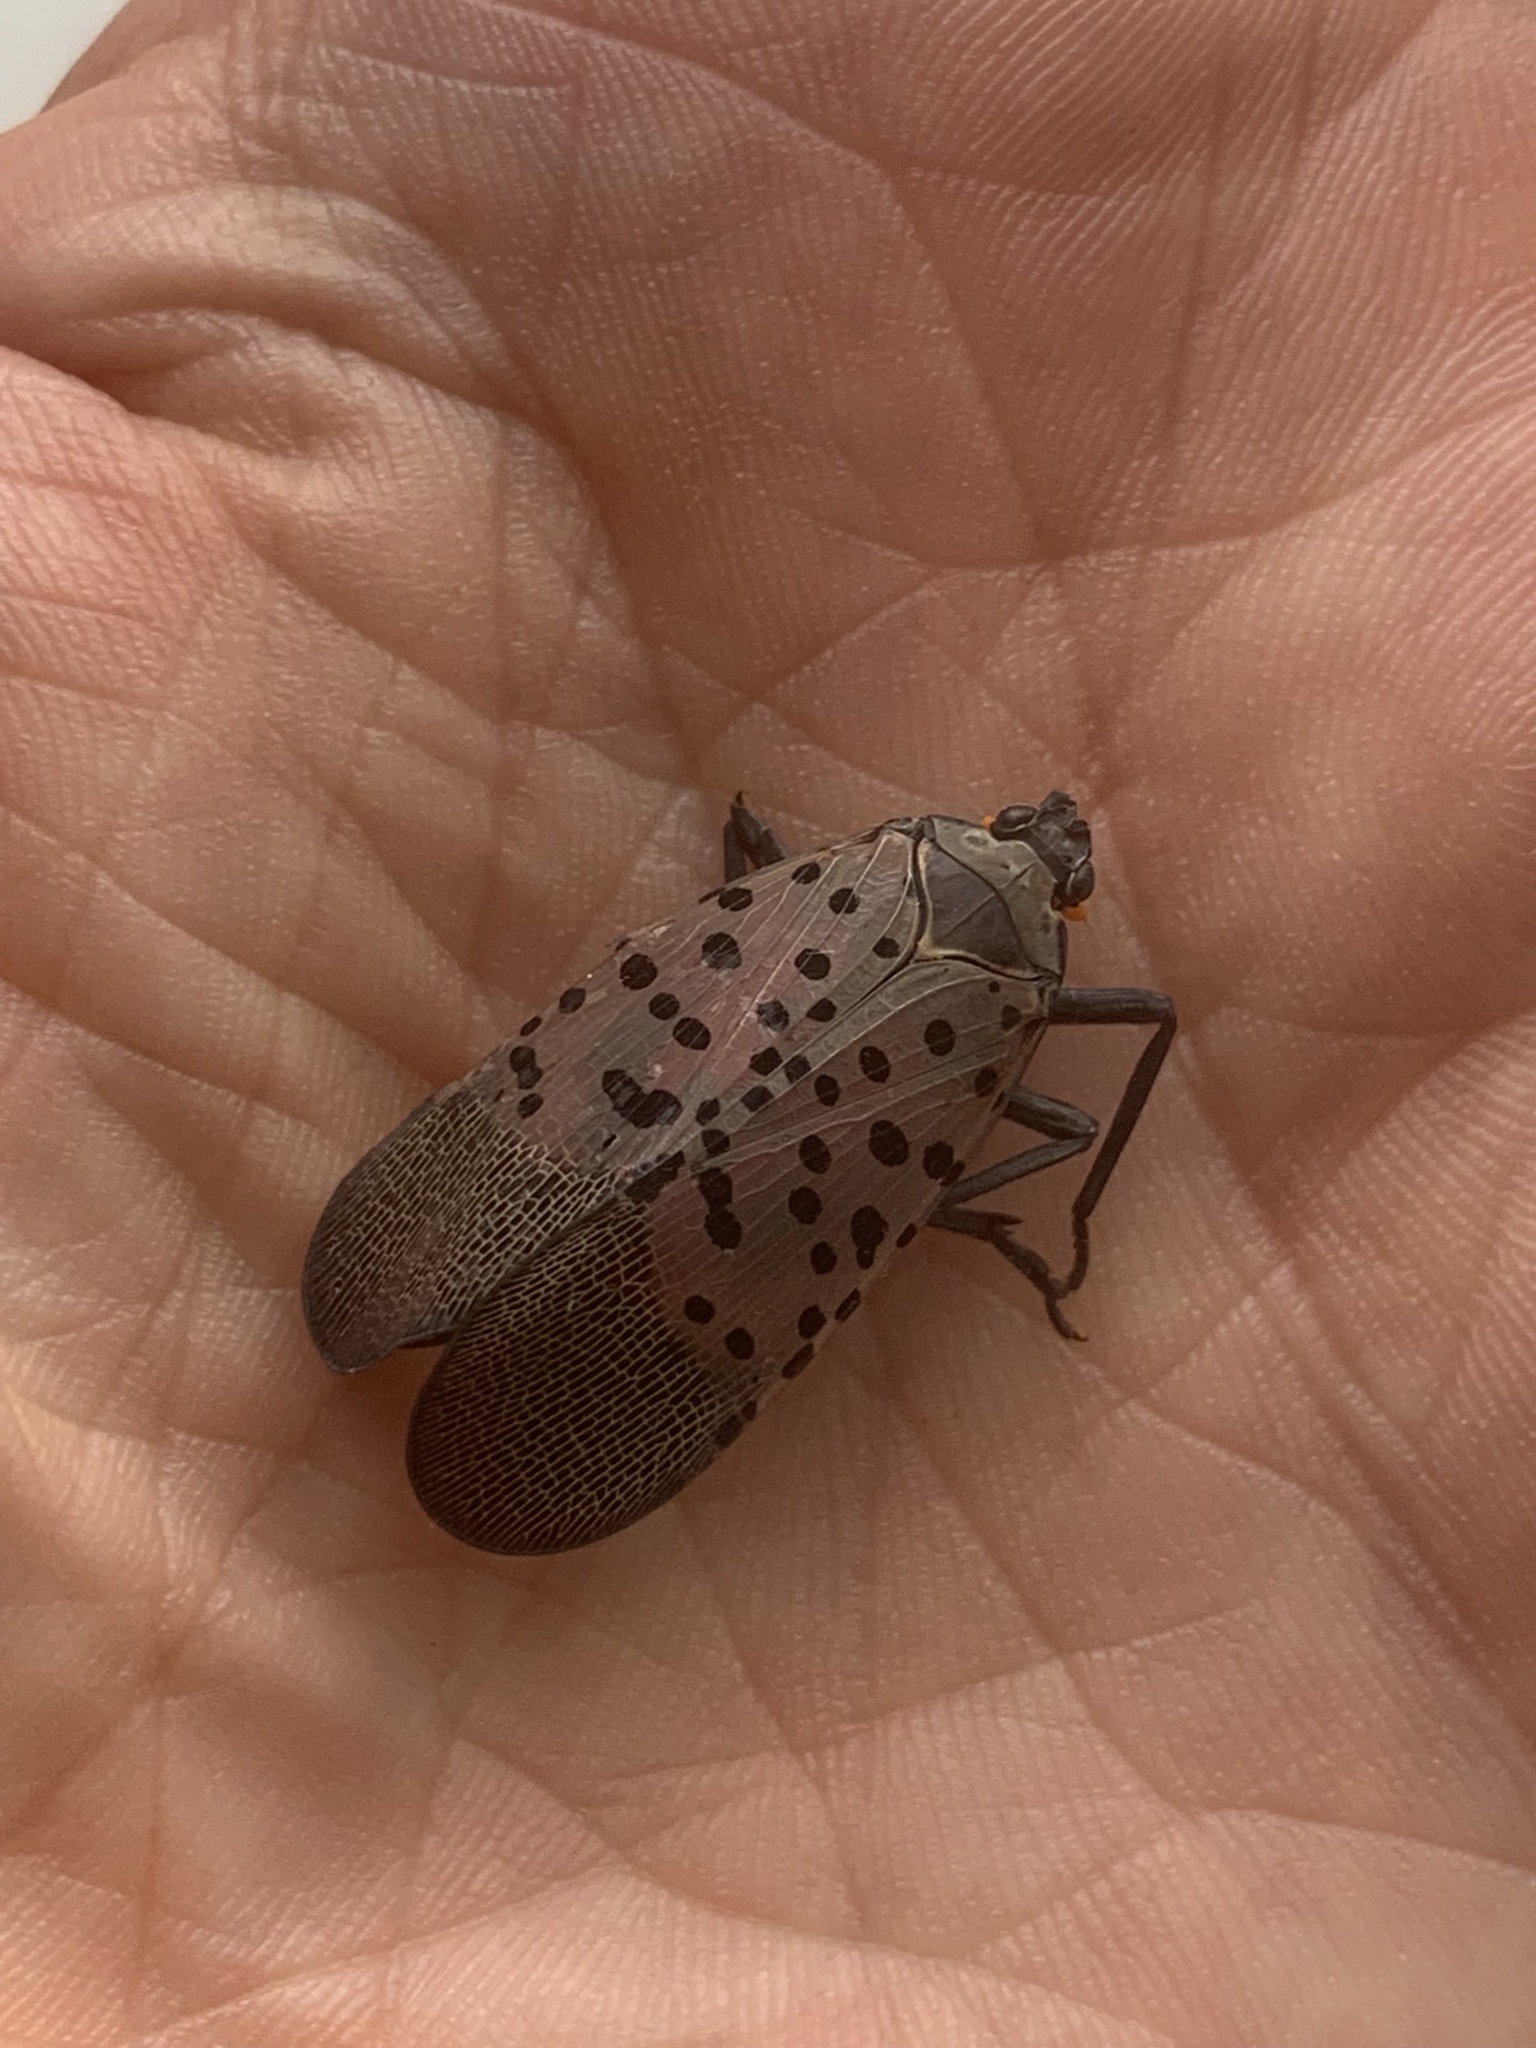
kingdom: Animalia
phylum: Arthropoda
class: Insecta
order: Hemiptera
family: Fulgoridae
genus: Lycorma
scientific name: Lycorma delicatula
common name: Spotted lanternfly
